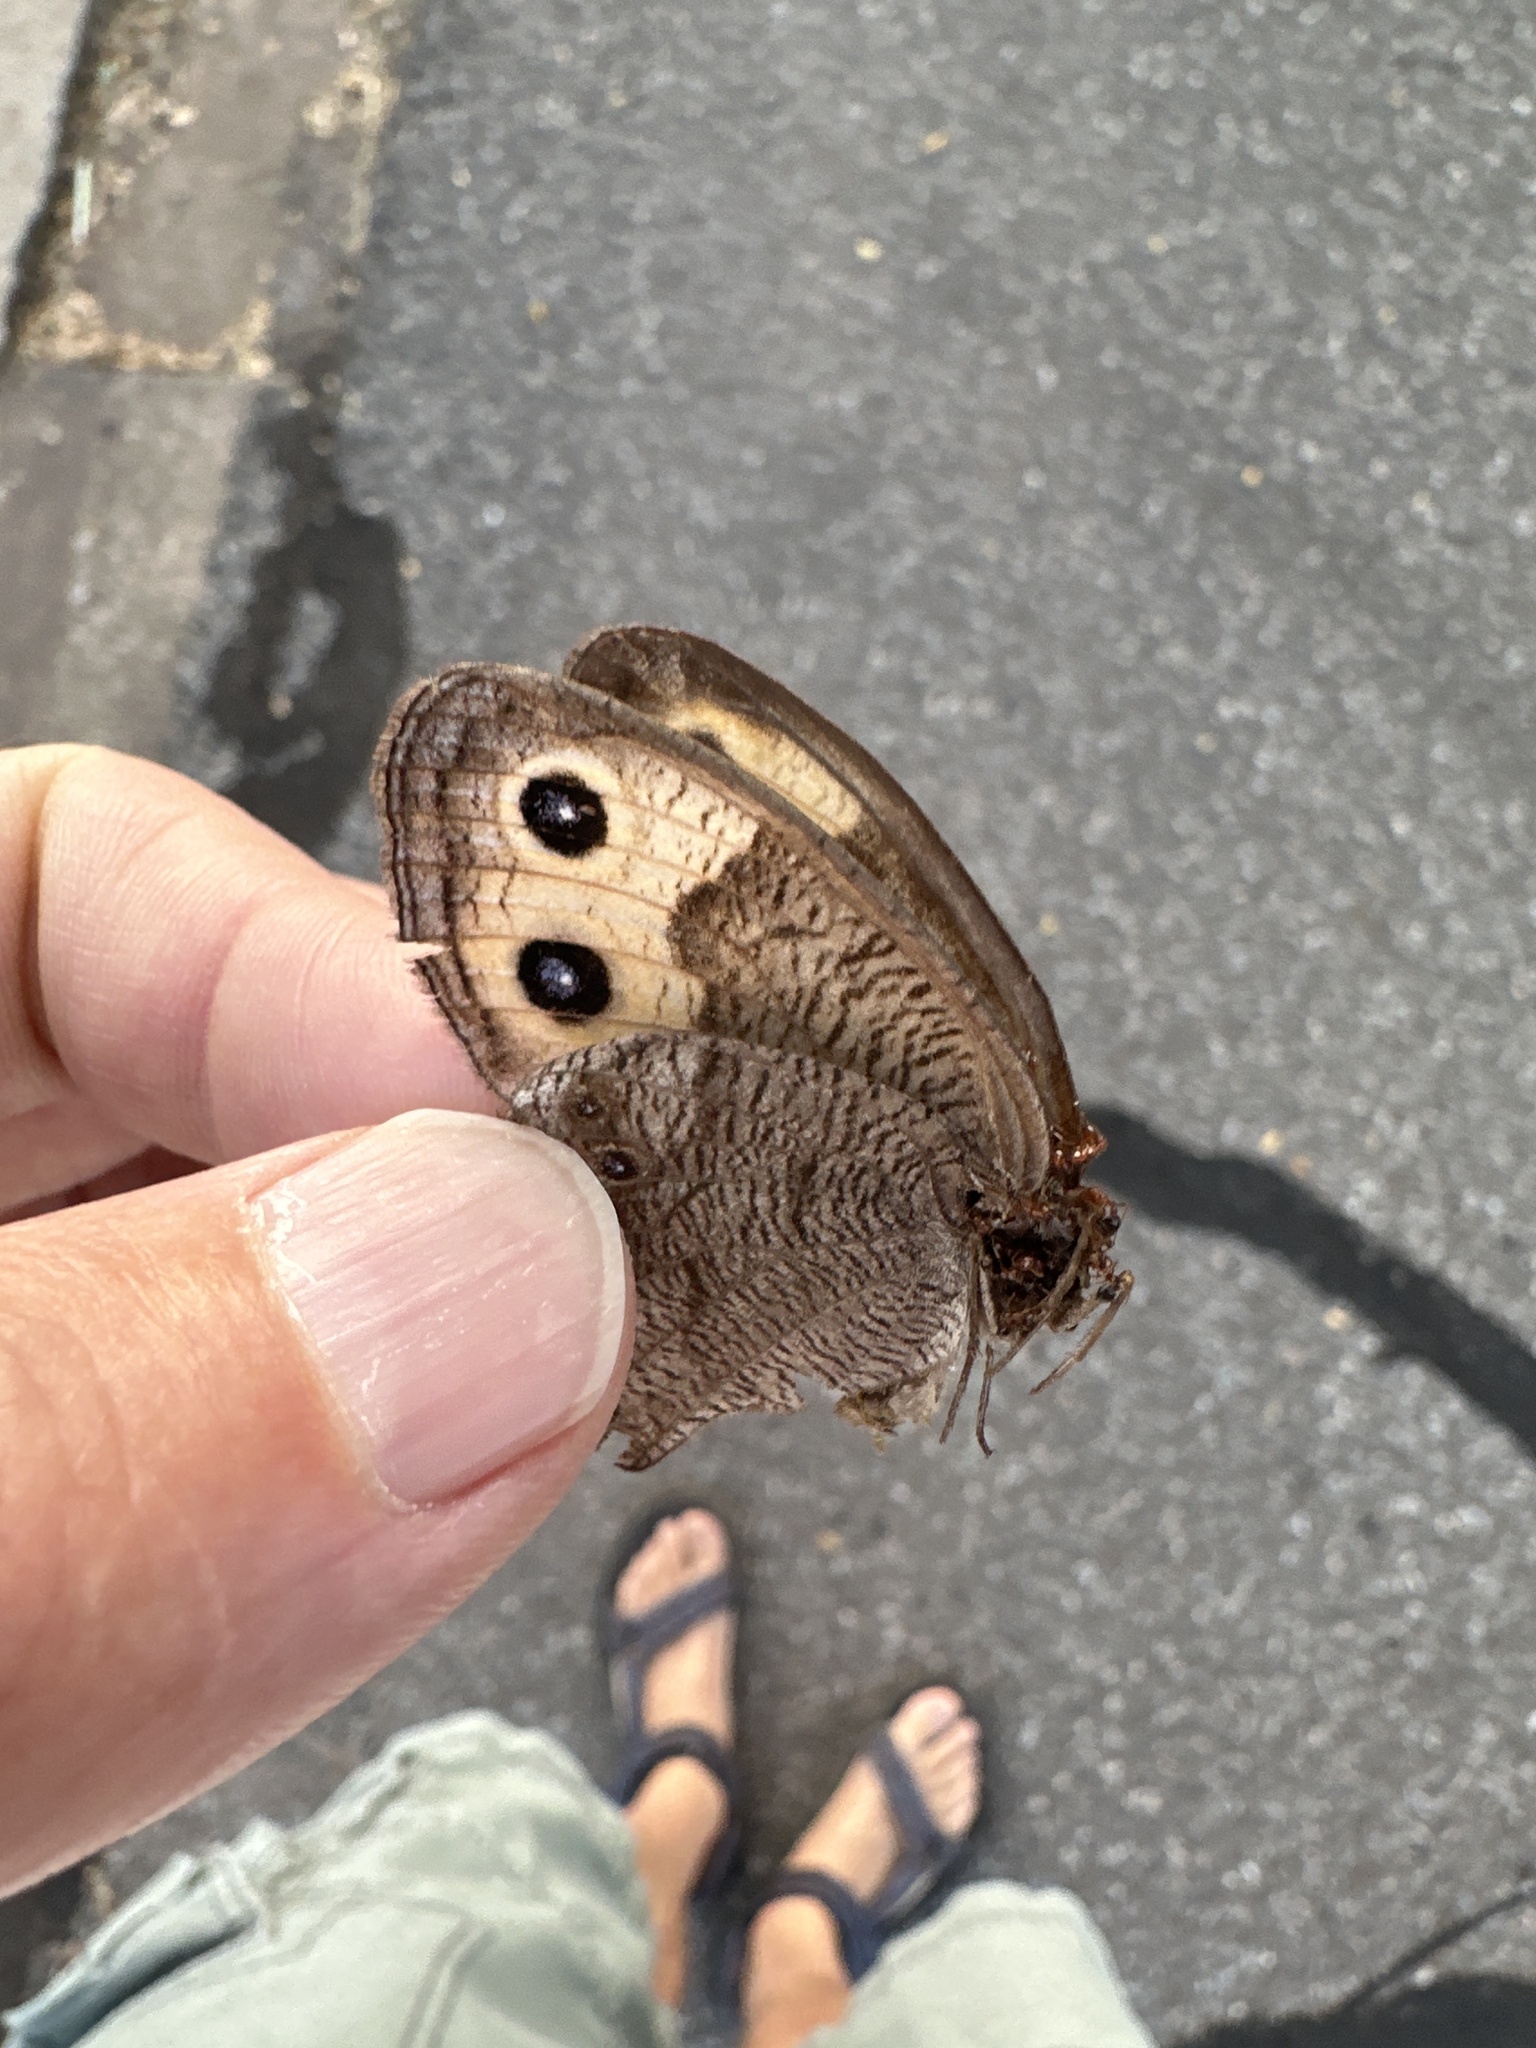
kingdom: Animalia
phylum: Arthropoda
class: Insecta
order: Lepidoptera
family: Nymphalidae
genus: Cercyonis
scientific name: Cercyonis pegala
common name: Common wood-nymph
